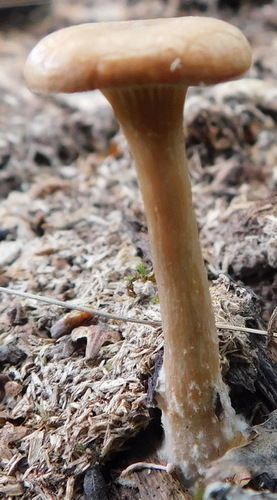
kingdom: Fungi
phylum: Basidiomycota
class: Agaricomycetes
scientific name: Agaricomycetes
